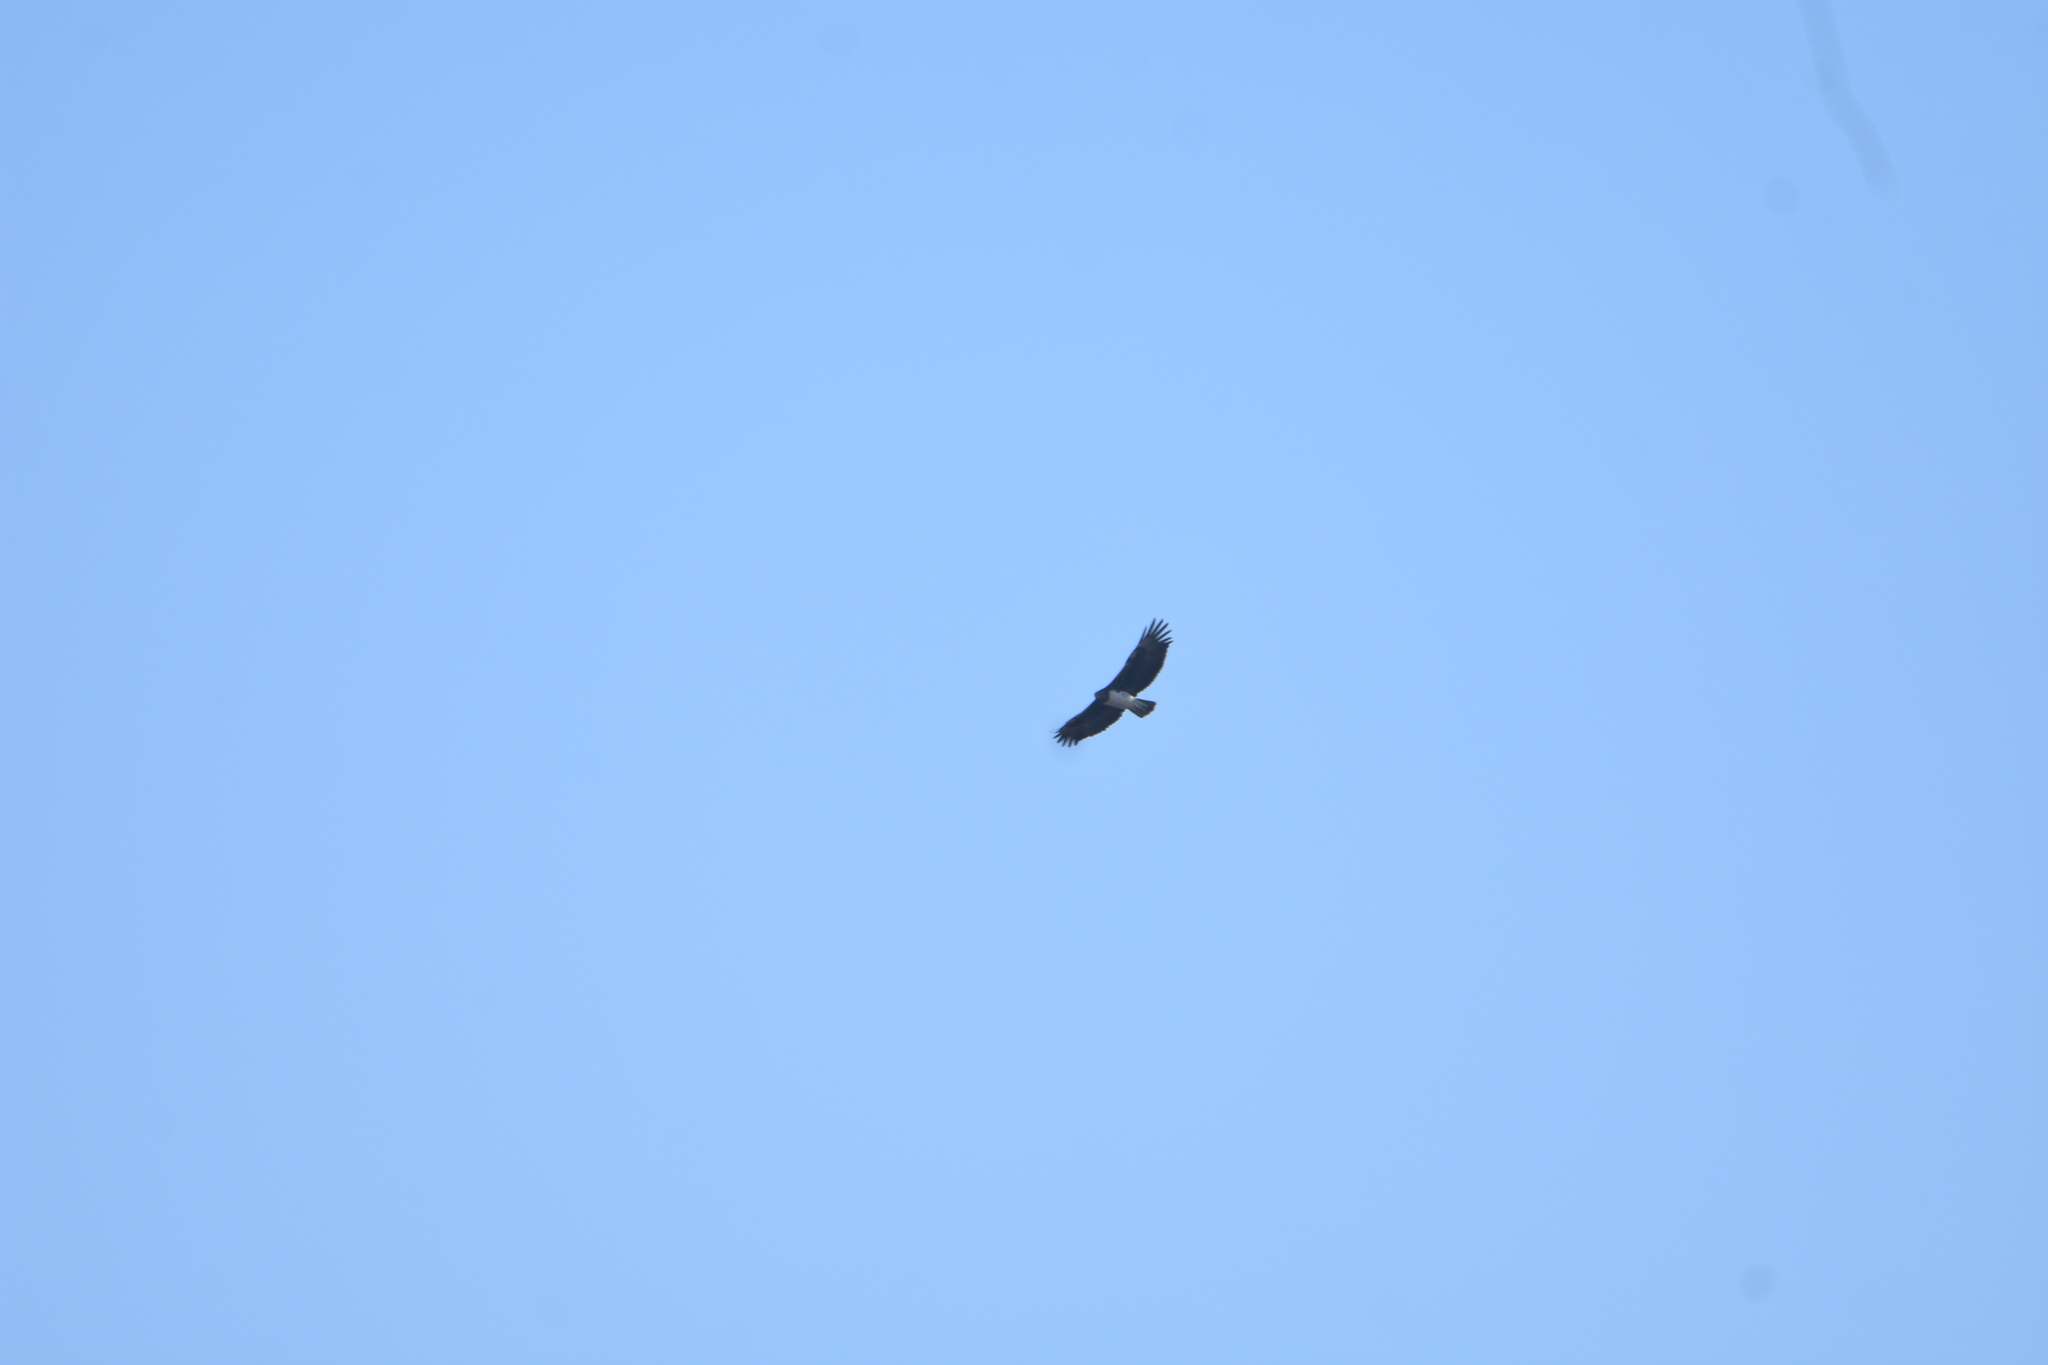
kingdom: Animalia
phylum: Chordata
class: Aves
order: Accipitriformes
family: Accipitridae
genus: Polemaetus
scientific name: Polemaetus bellicosus
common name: Martial eagle
